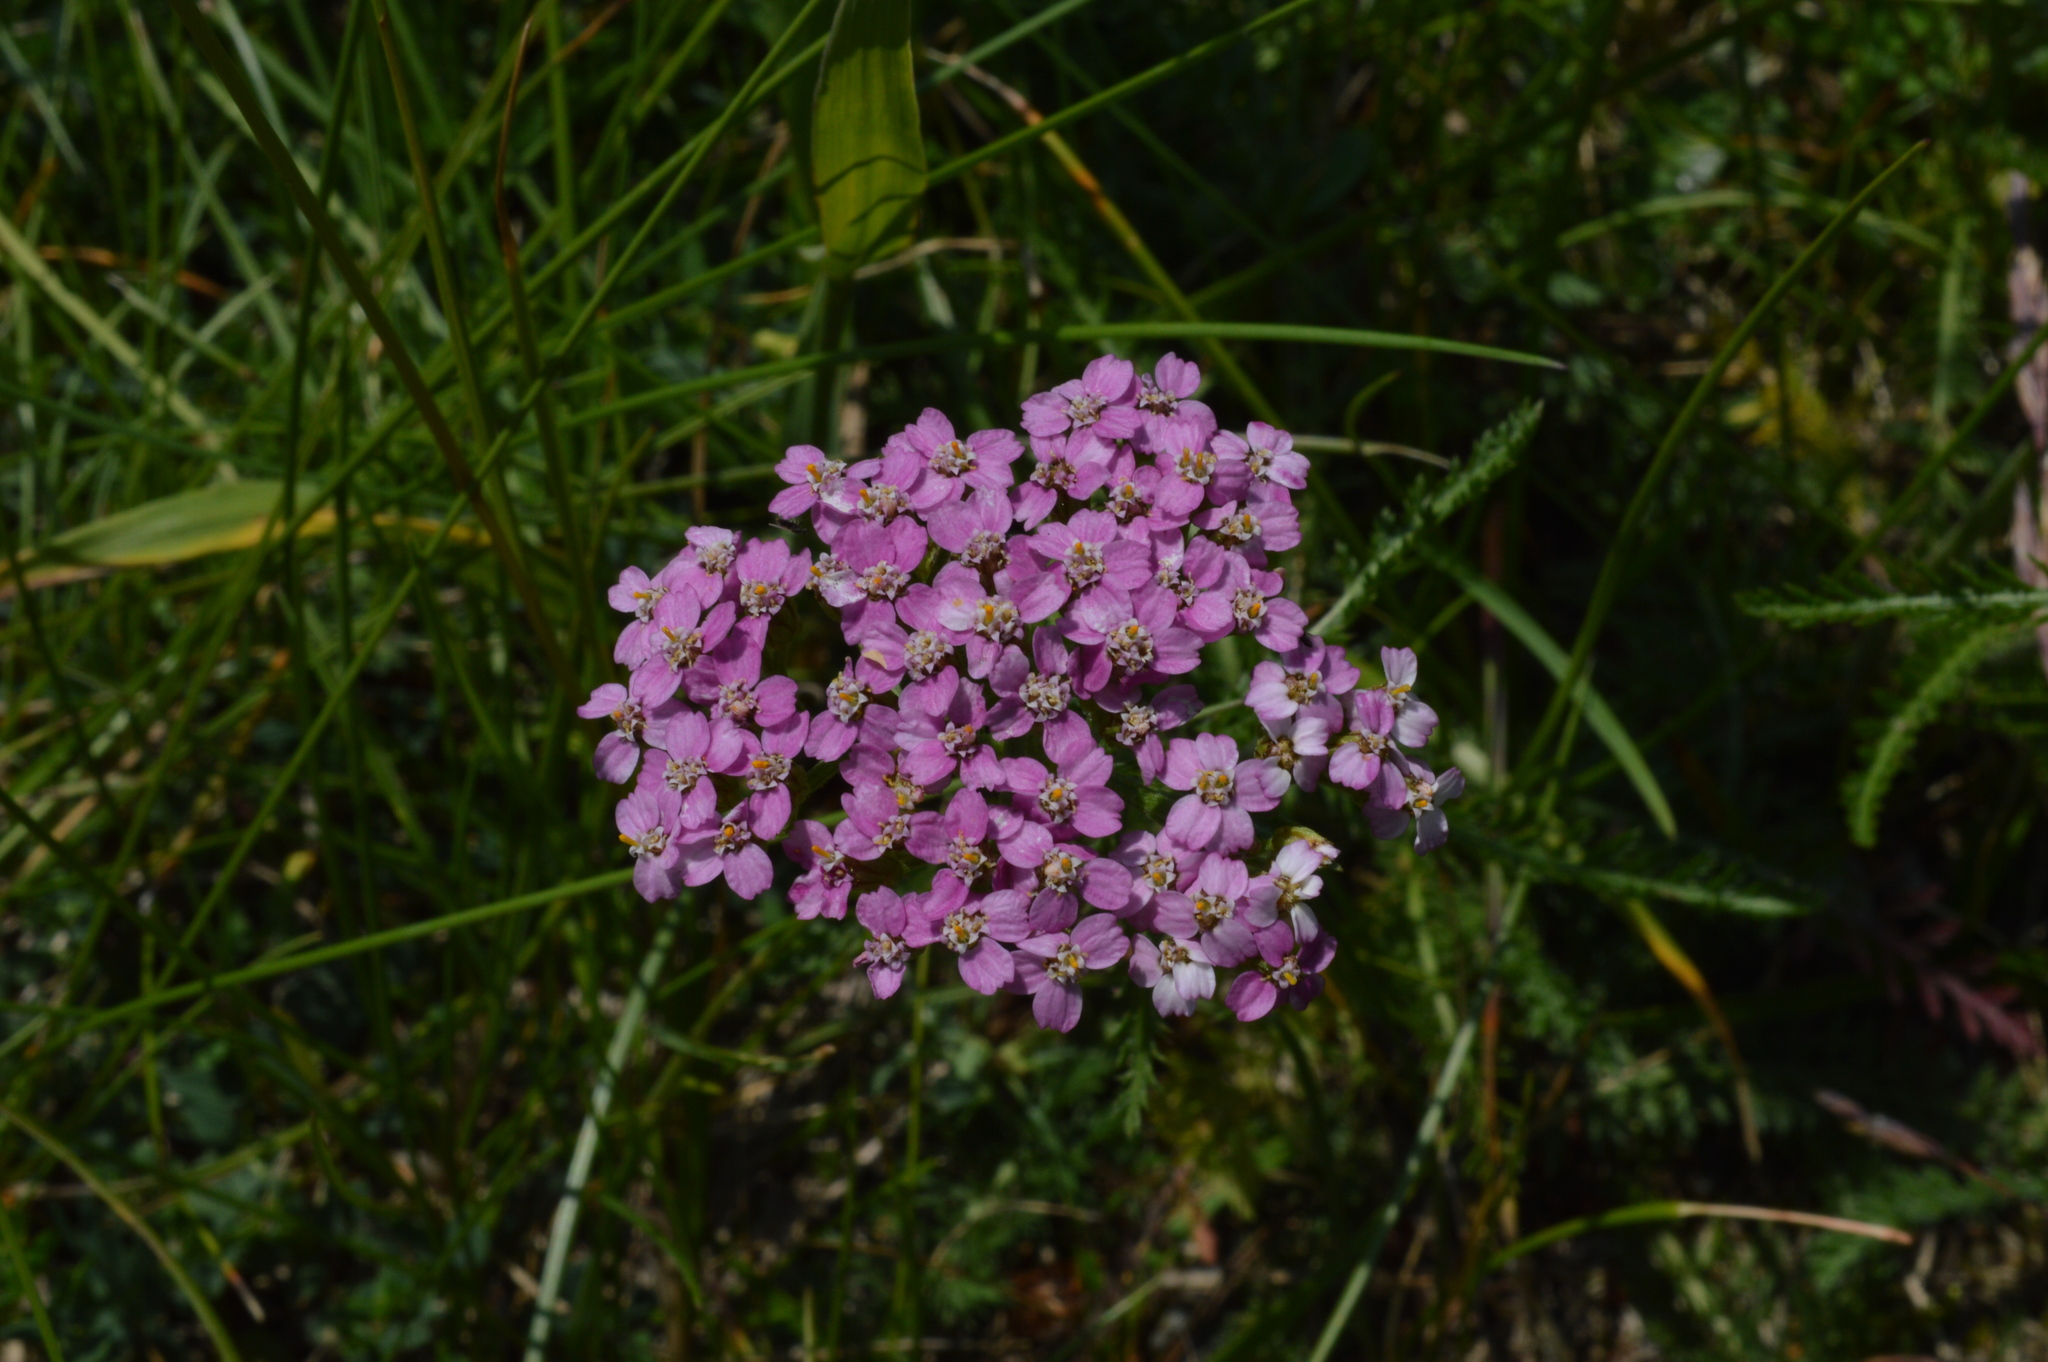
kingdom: Plantae
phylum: Tracheophyta
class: Magnoliopsida
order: Asterales
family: Asteraceae
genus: Achillea
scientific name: Achillea millefolium
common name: Yarrow
